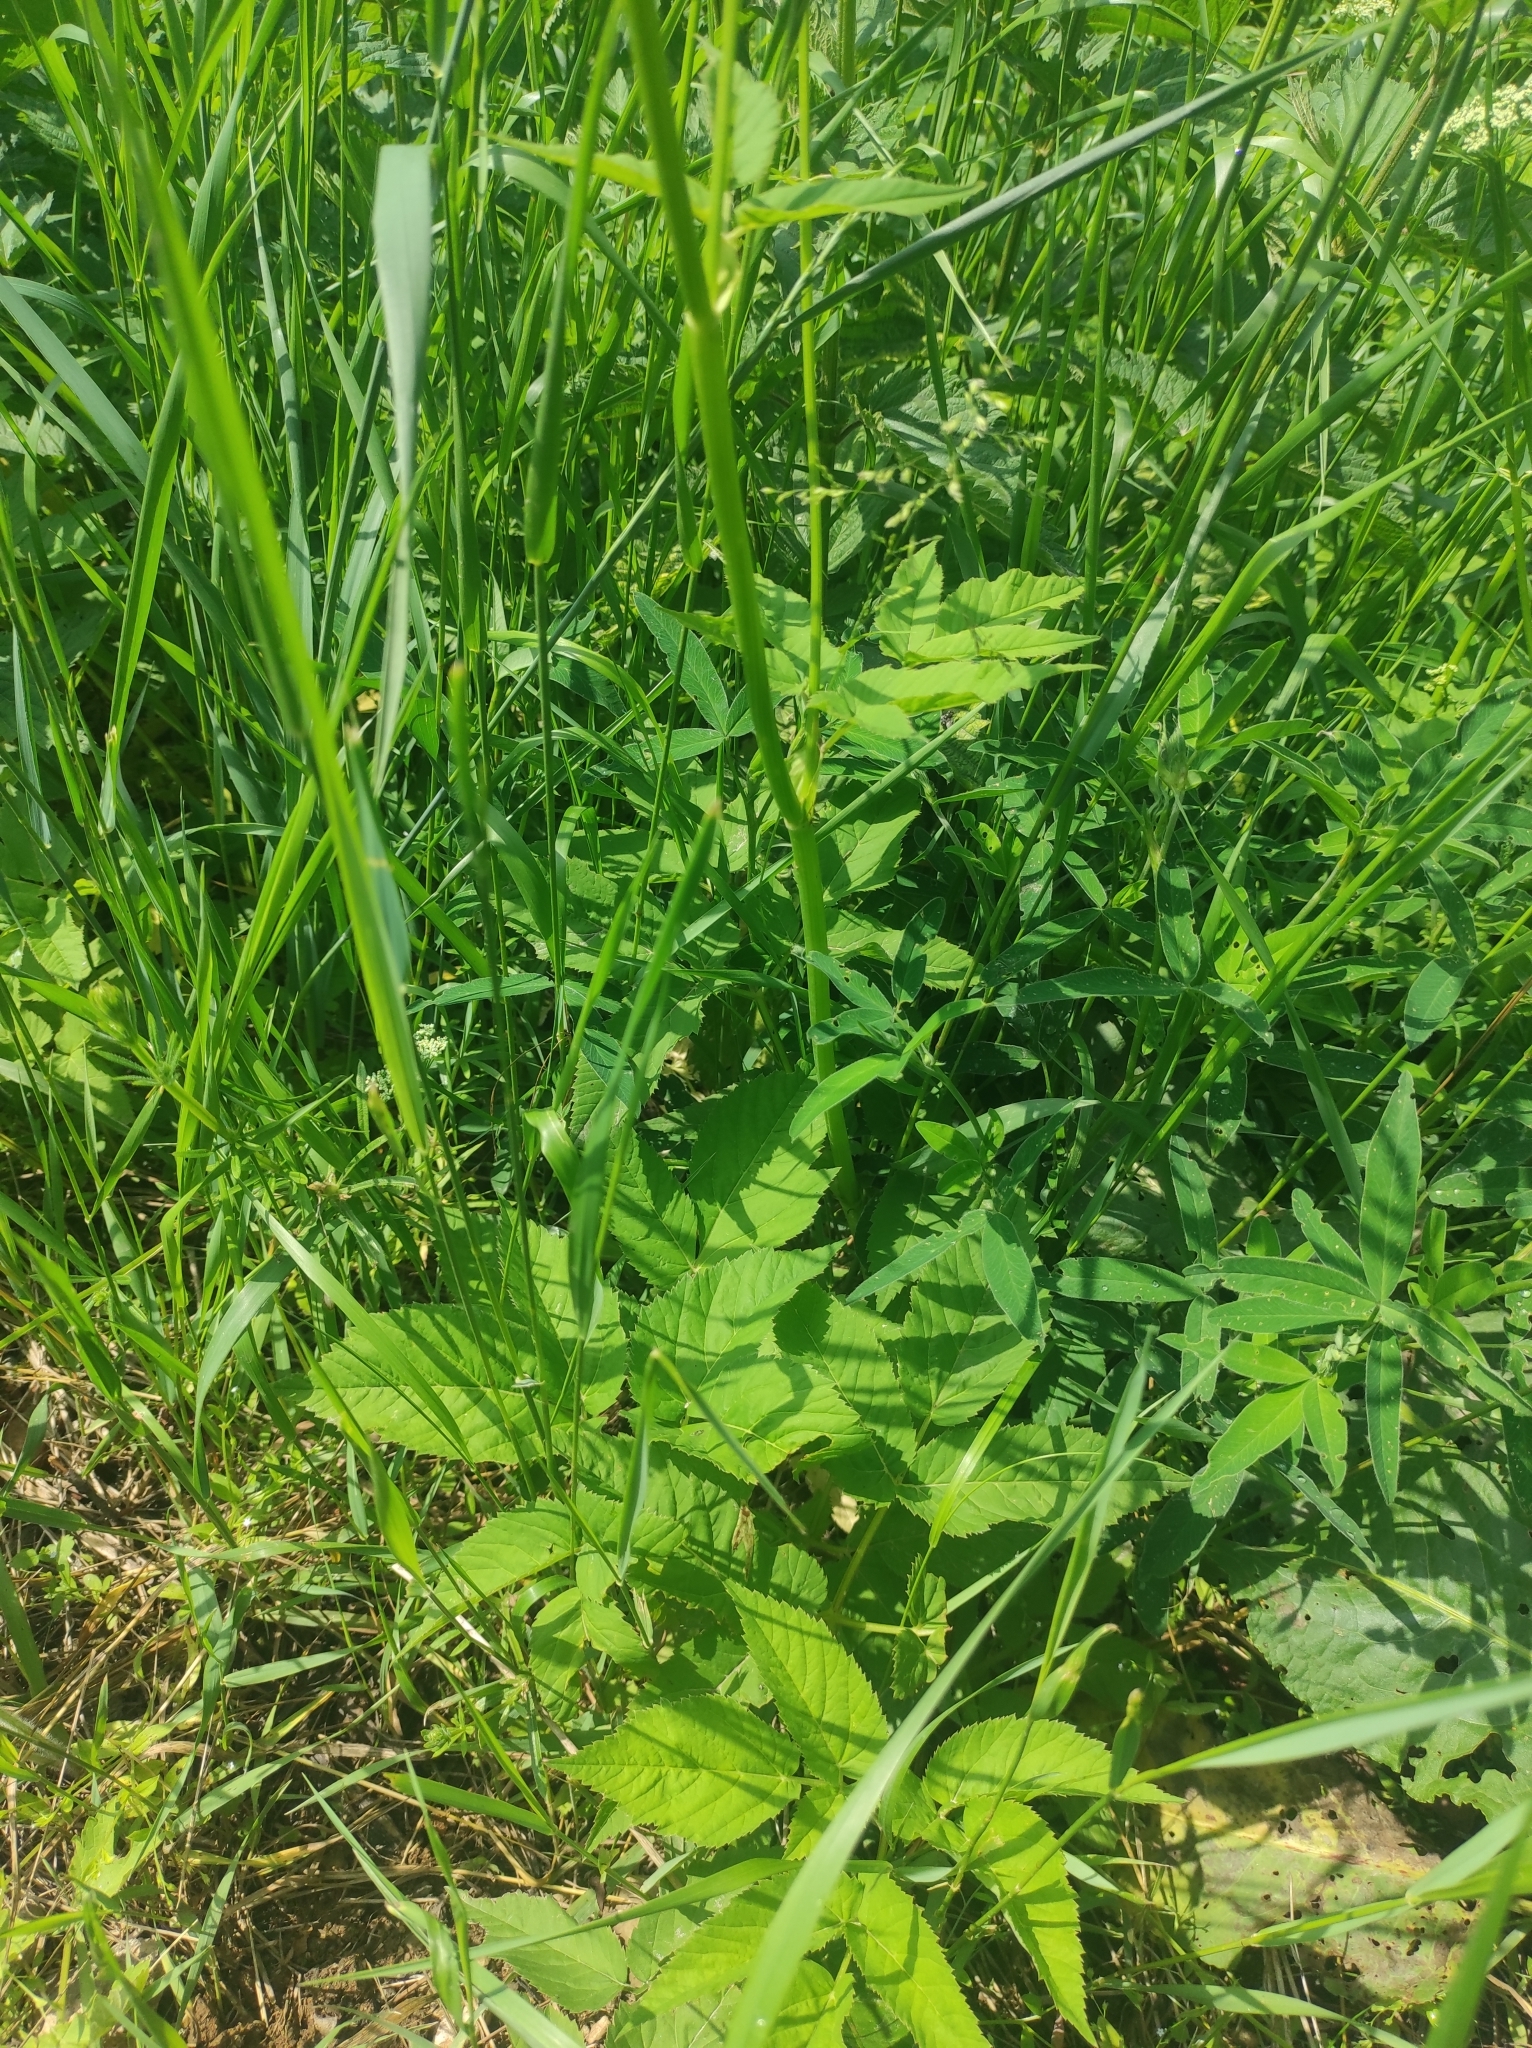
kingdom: Plantae
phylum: Tracheophyta
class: Magnoliopsida
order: Apiales
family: Apiaceae
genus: Aegopodium
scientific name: Aegopodium podagraria
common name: Ground-elder
